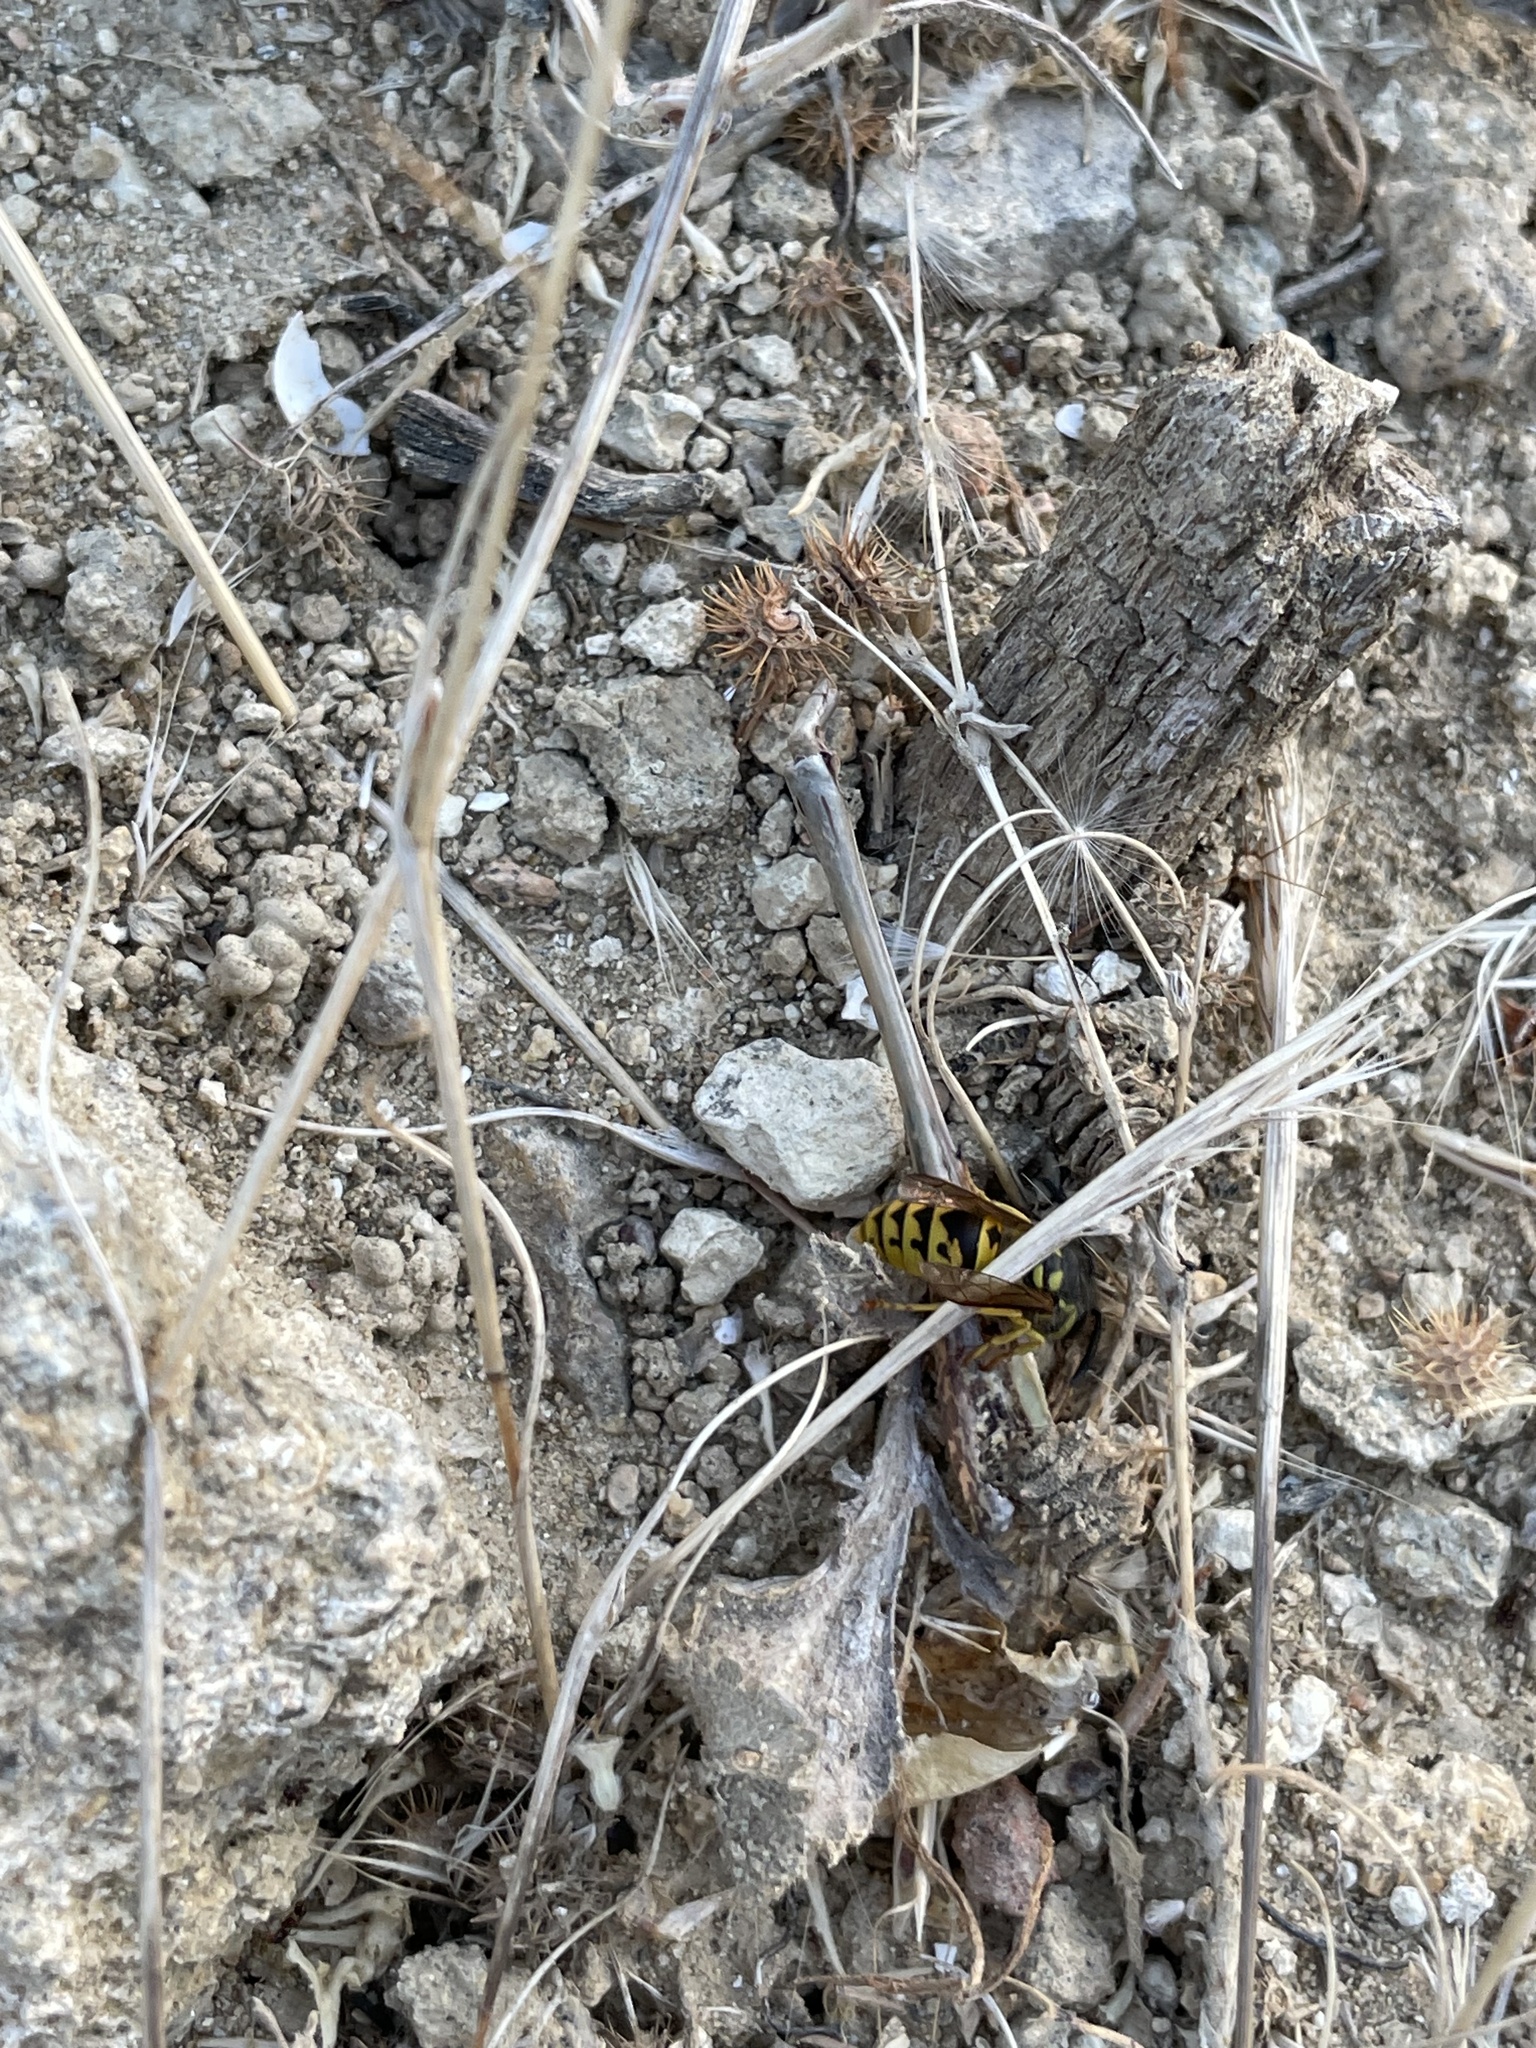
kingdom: Animalia
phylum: Arthropoda
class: Insecta
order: Hymenoptera
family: Vespidae
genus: Vespula
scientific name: Vespula germanica
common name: German wasp
